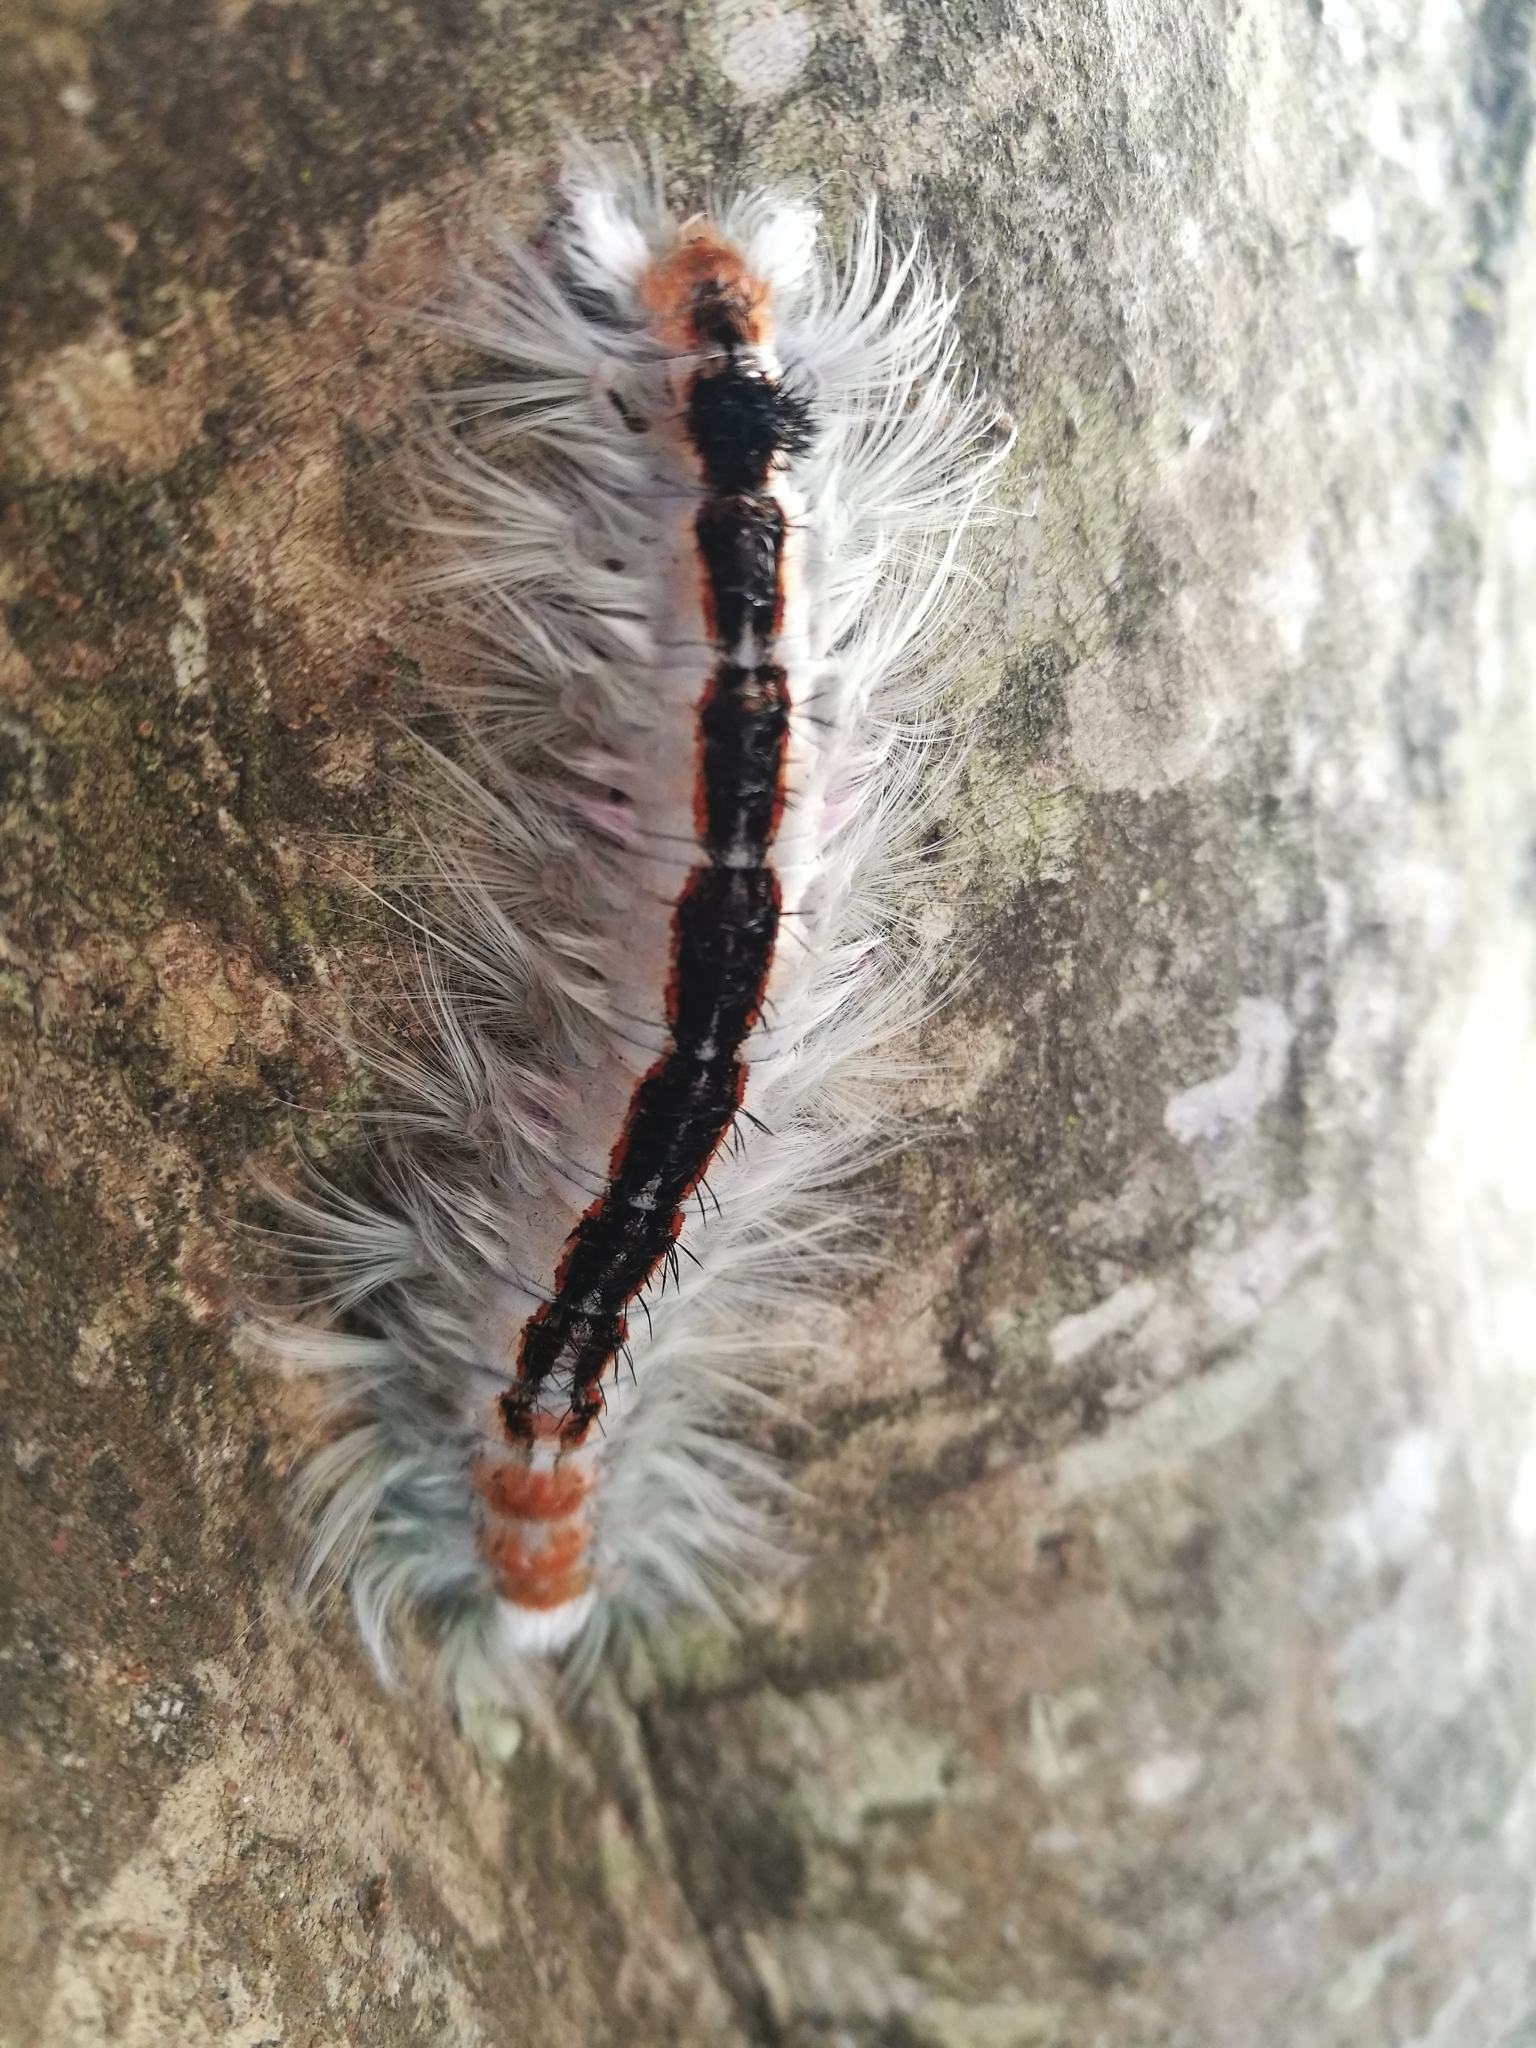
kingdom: Animalia
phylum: Arthropoda
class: Insecta
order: Lepidoptera
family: Lasiocampidae
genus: Eutricha
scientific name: Eutricha capensis
